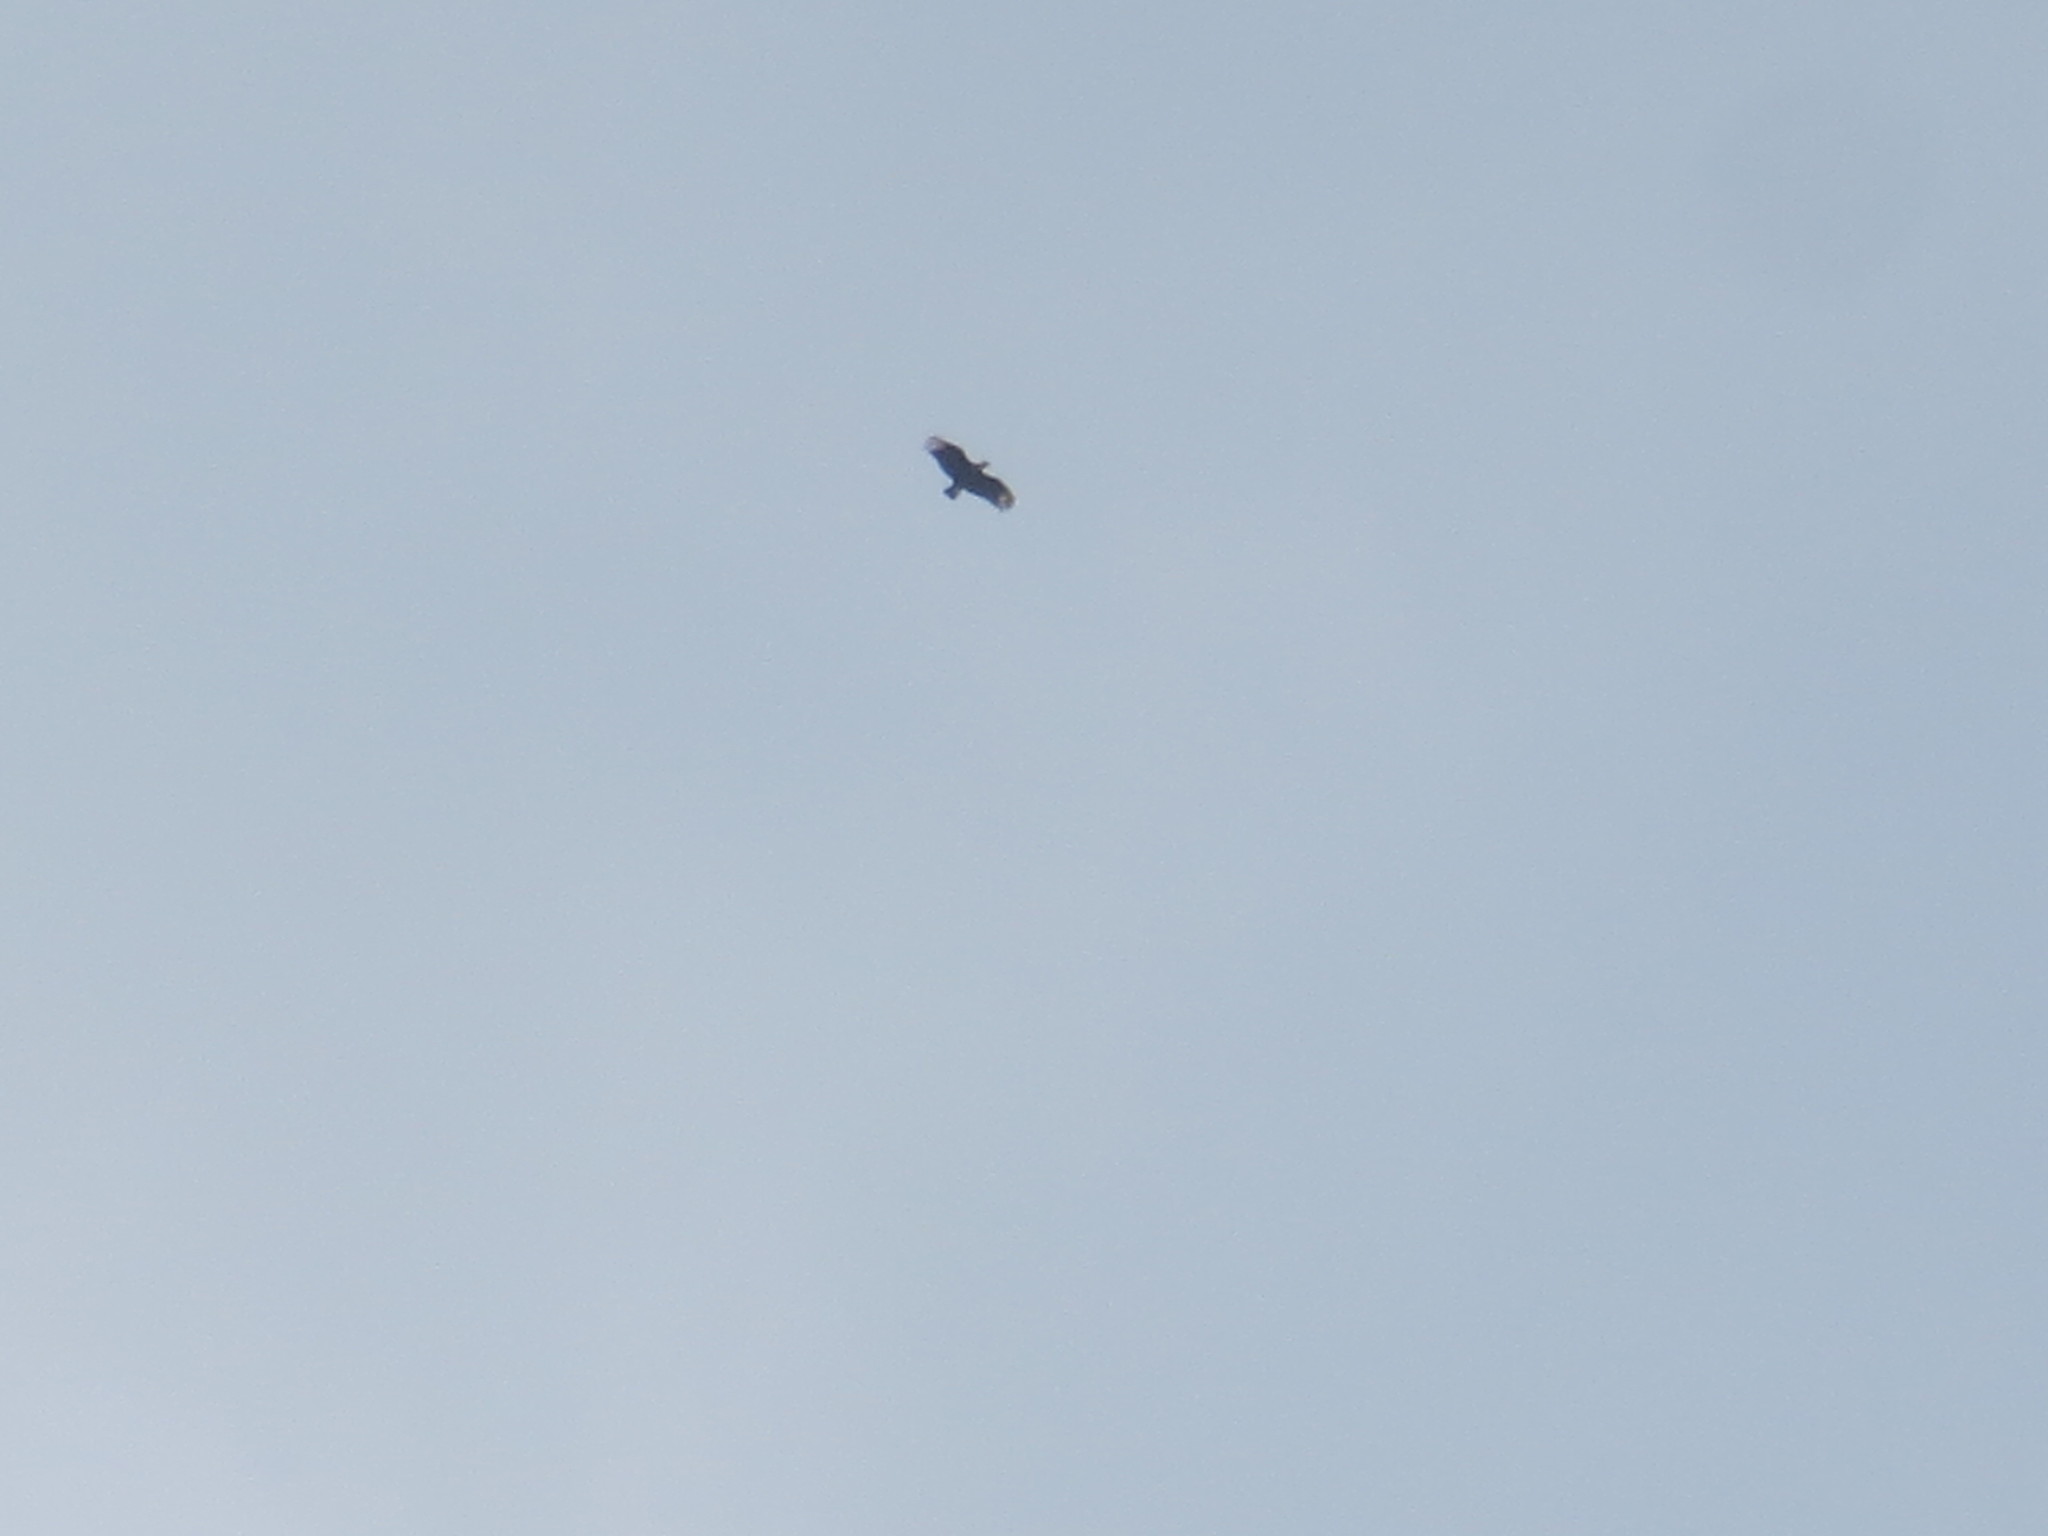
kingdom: Animalia
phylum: Chordata
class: Aves
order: Accipitriformes
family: Cathartidae
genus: Coragyps
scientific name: Coragyps atratus
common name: Black vulture
